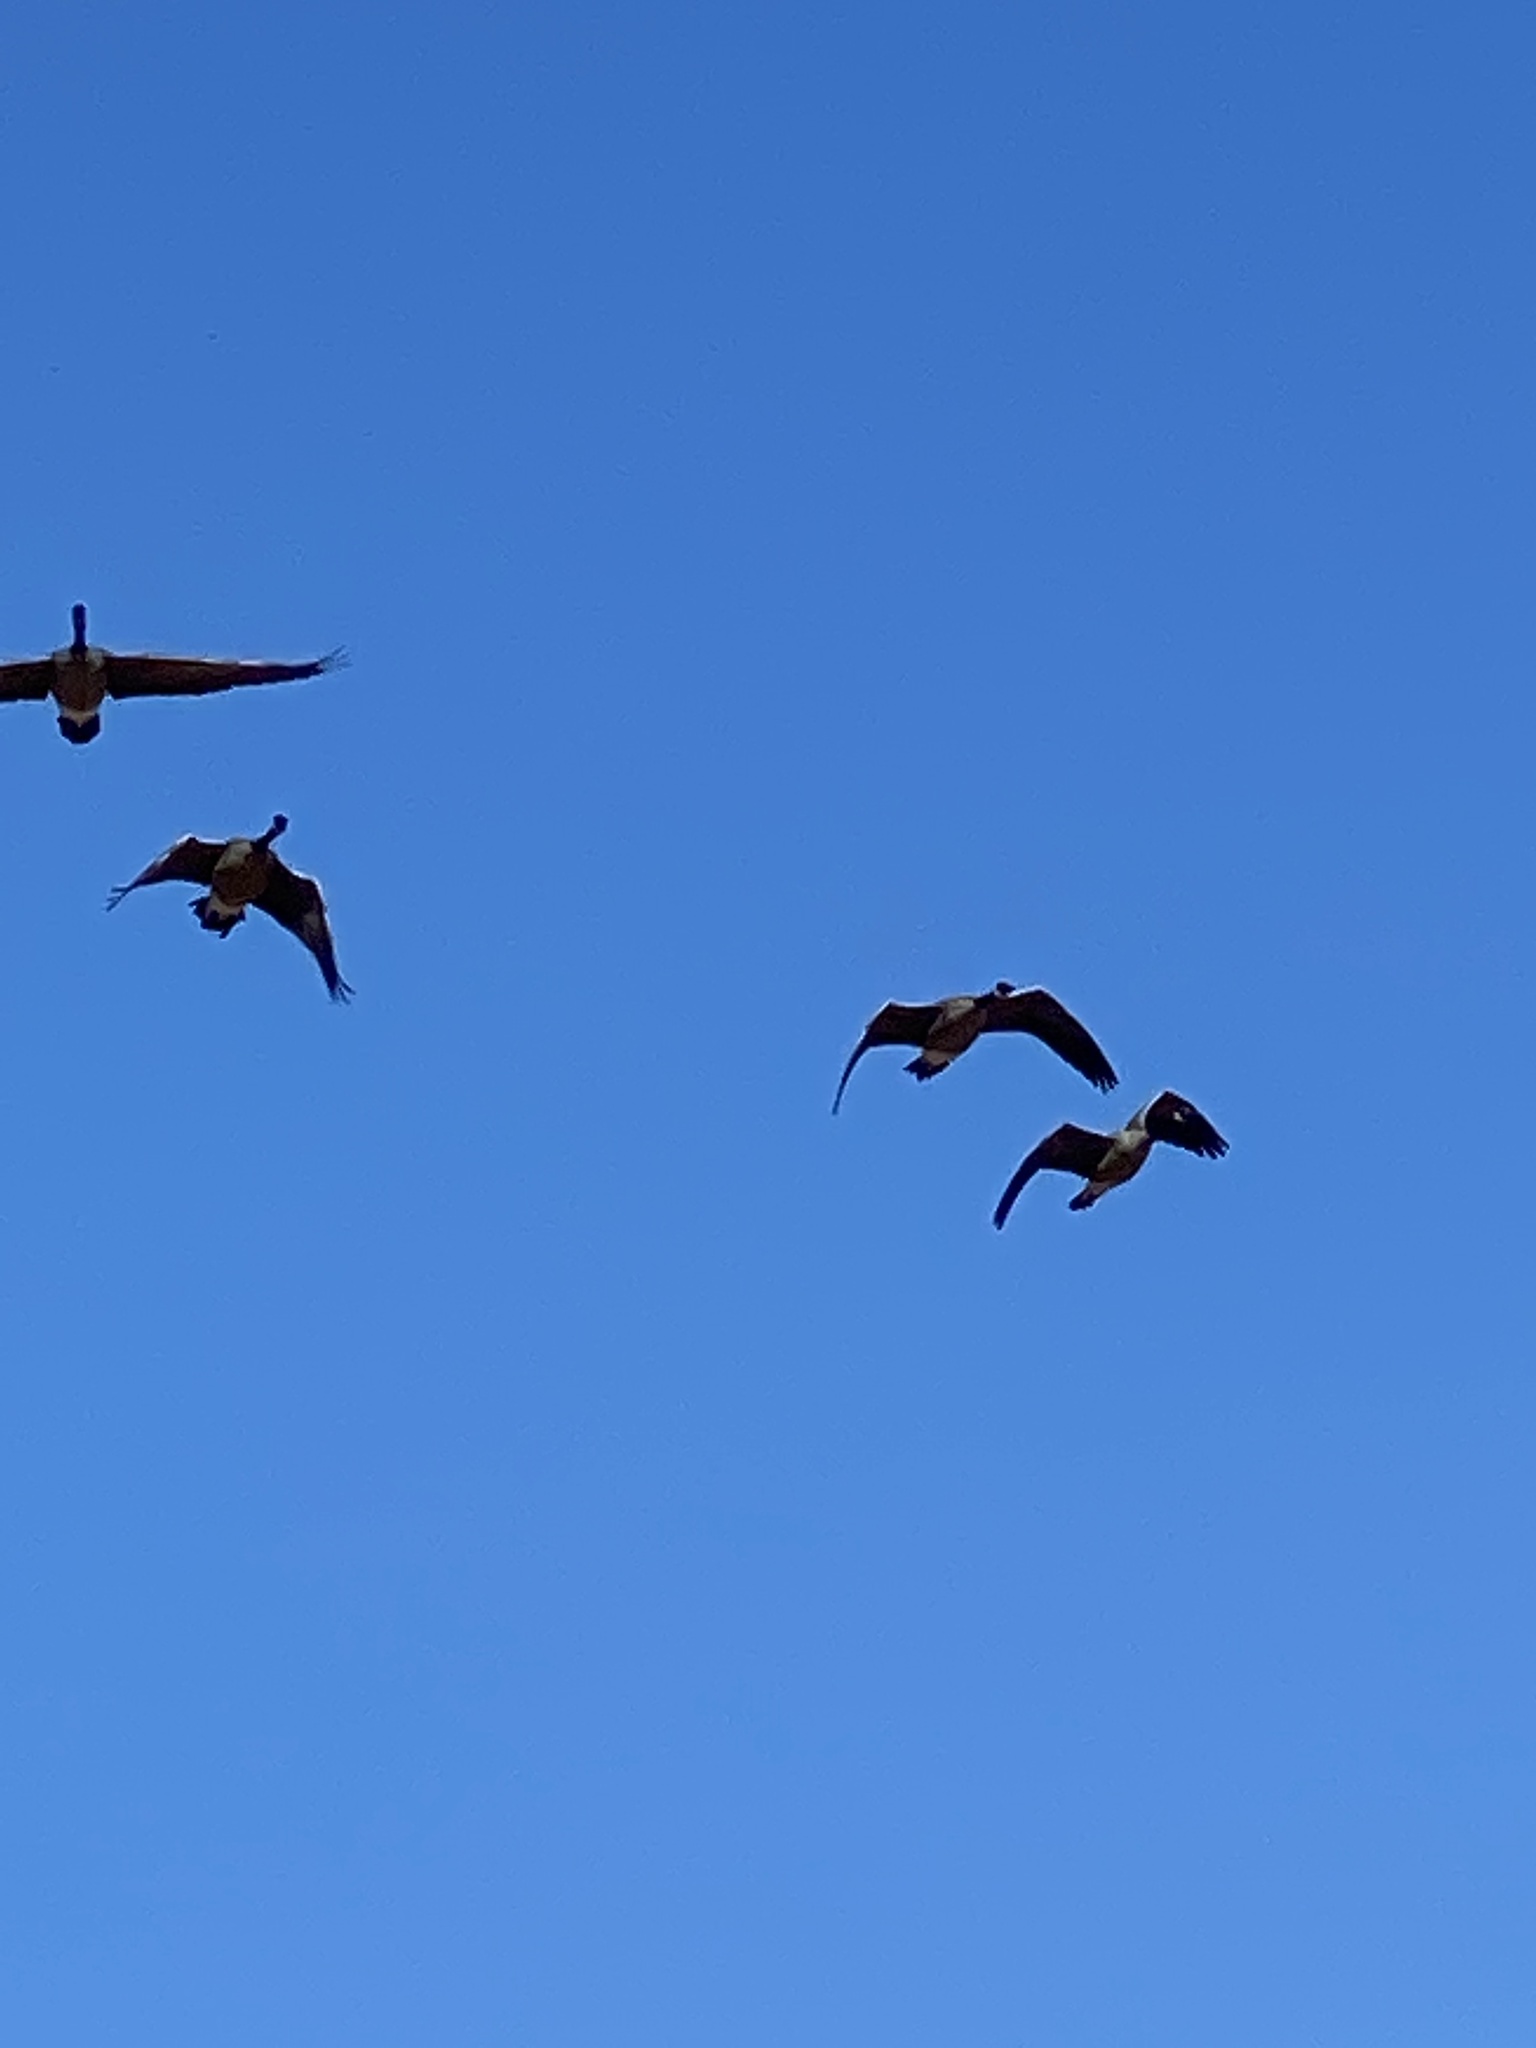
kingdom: Animalia
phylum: Chordata
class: Aves
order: Anseriformes
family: Anatidae
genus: Branta
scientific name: Branta canadensis
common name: Canada goose
